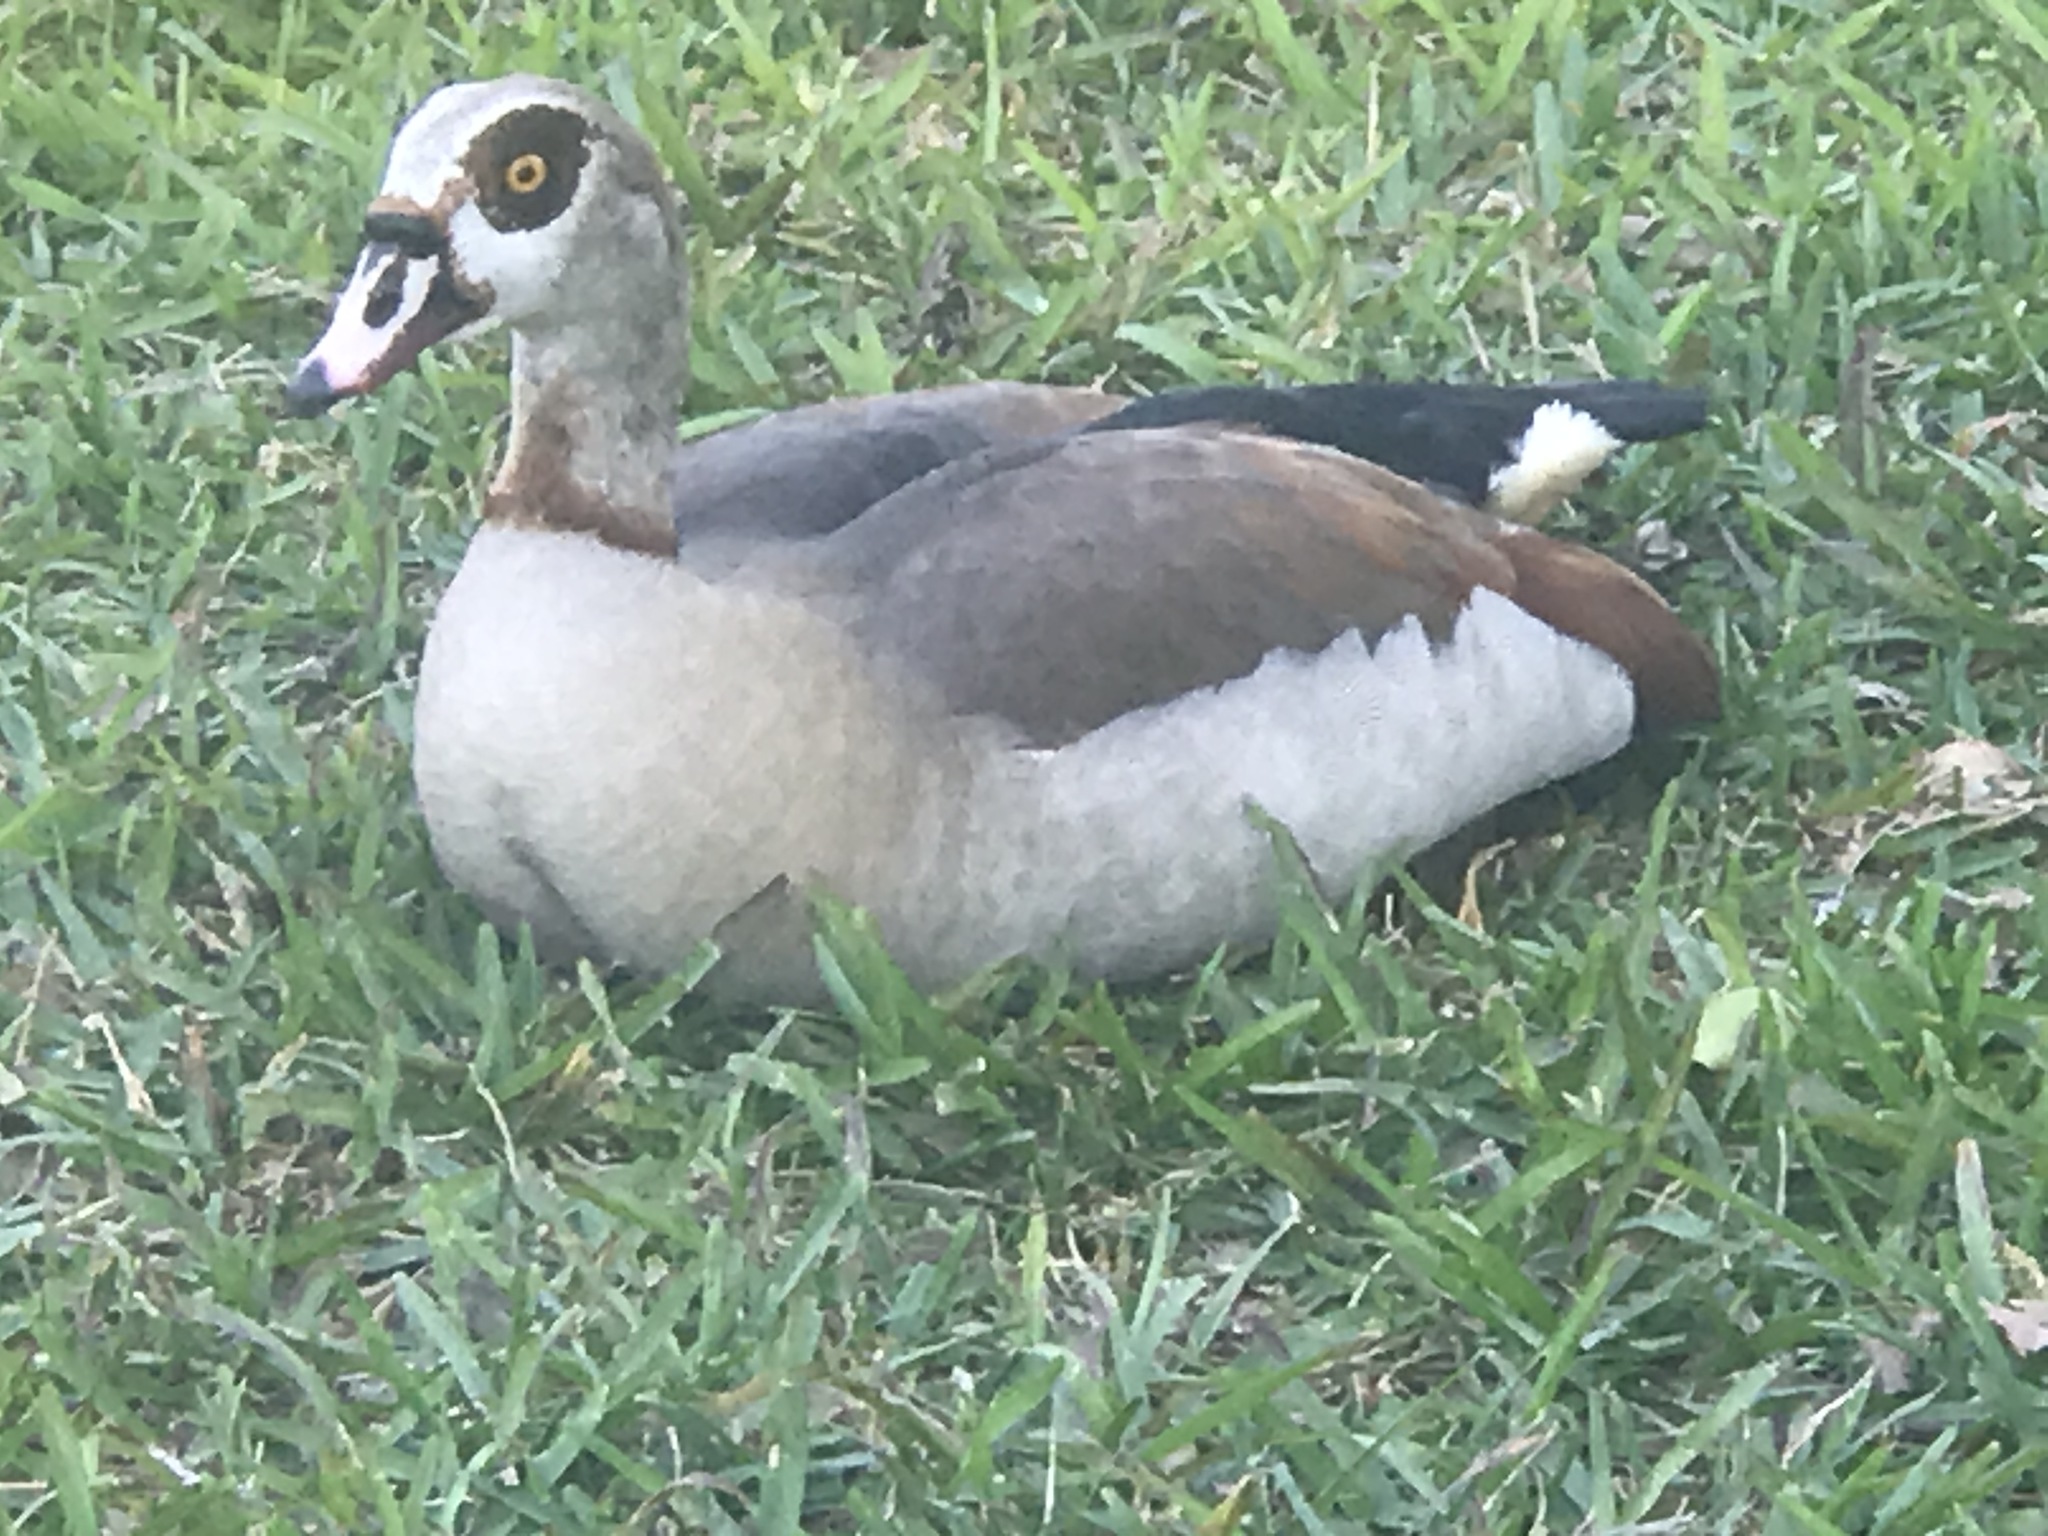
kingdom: Animalia
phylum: Chordata
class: Aves
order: Anseriformes
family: Anatidae
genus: Alopochen
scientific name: Alopochen aegyptiaca
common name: Egyptian goose
